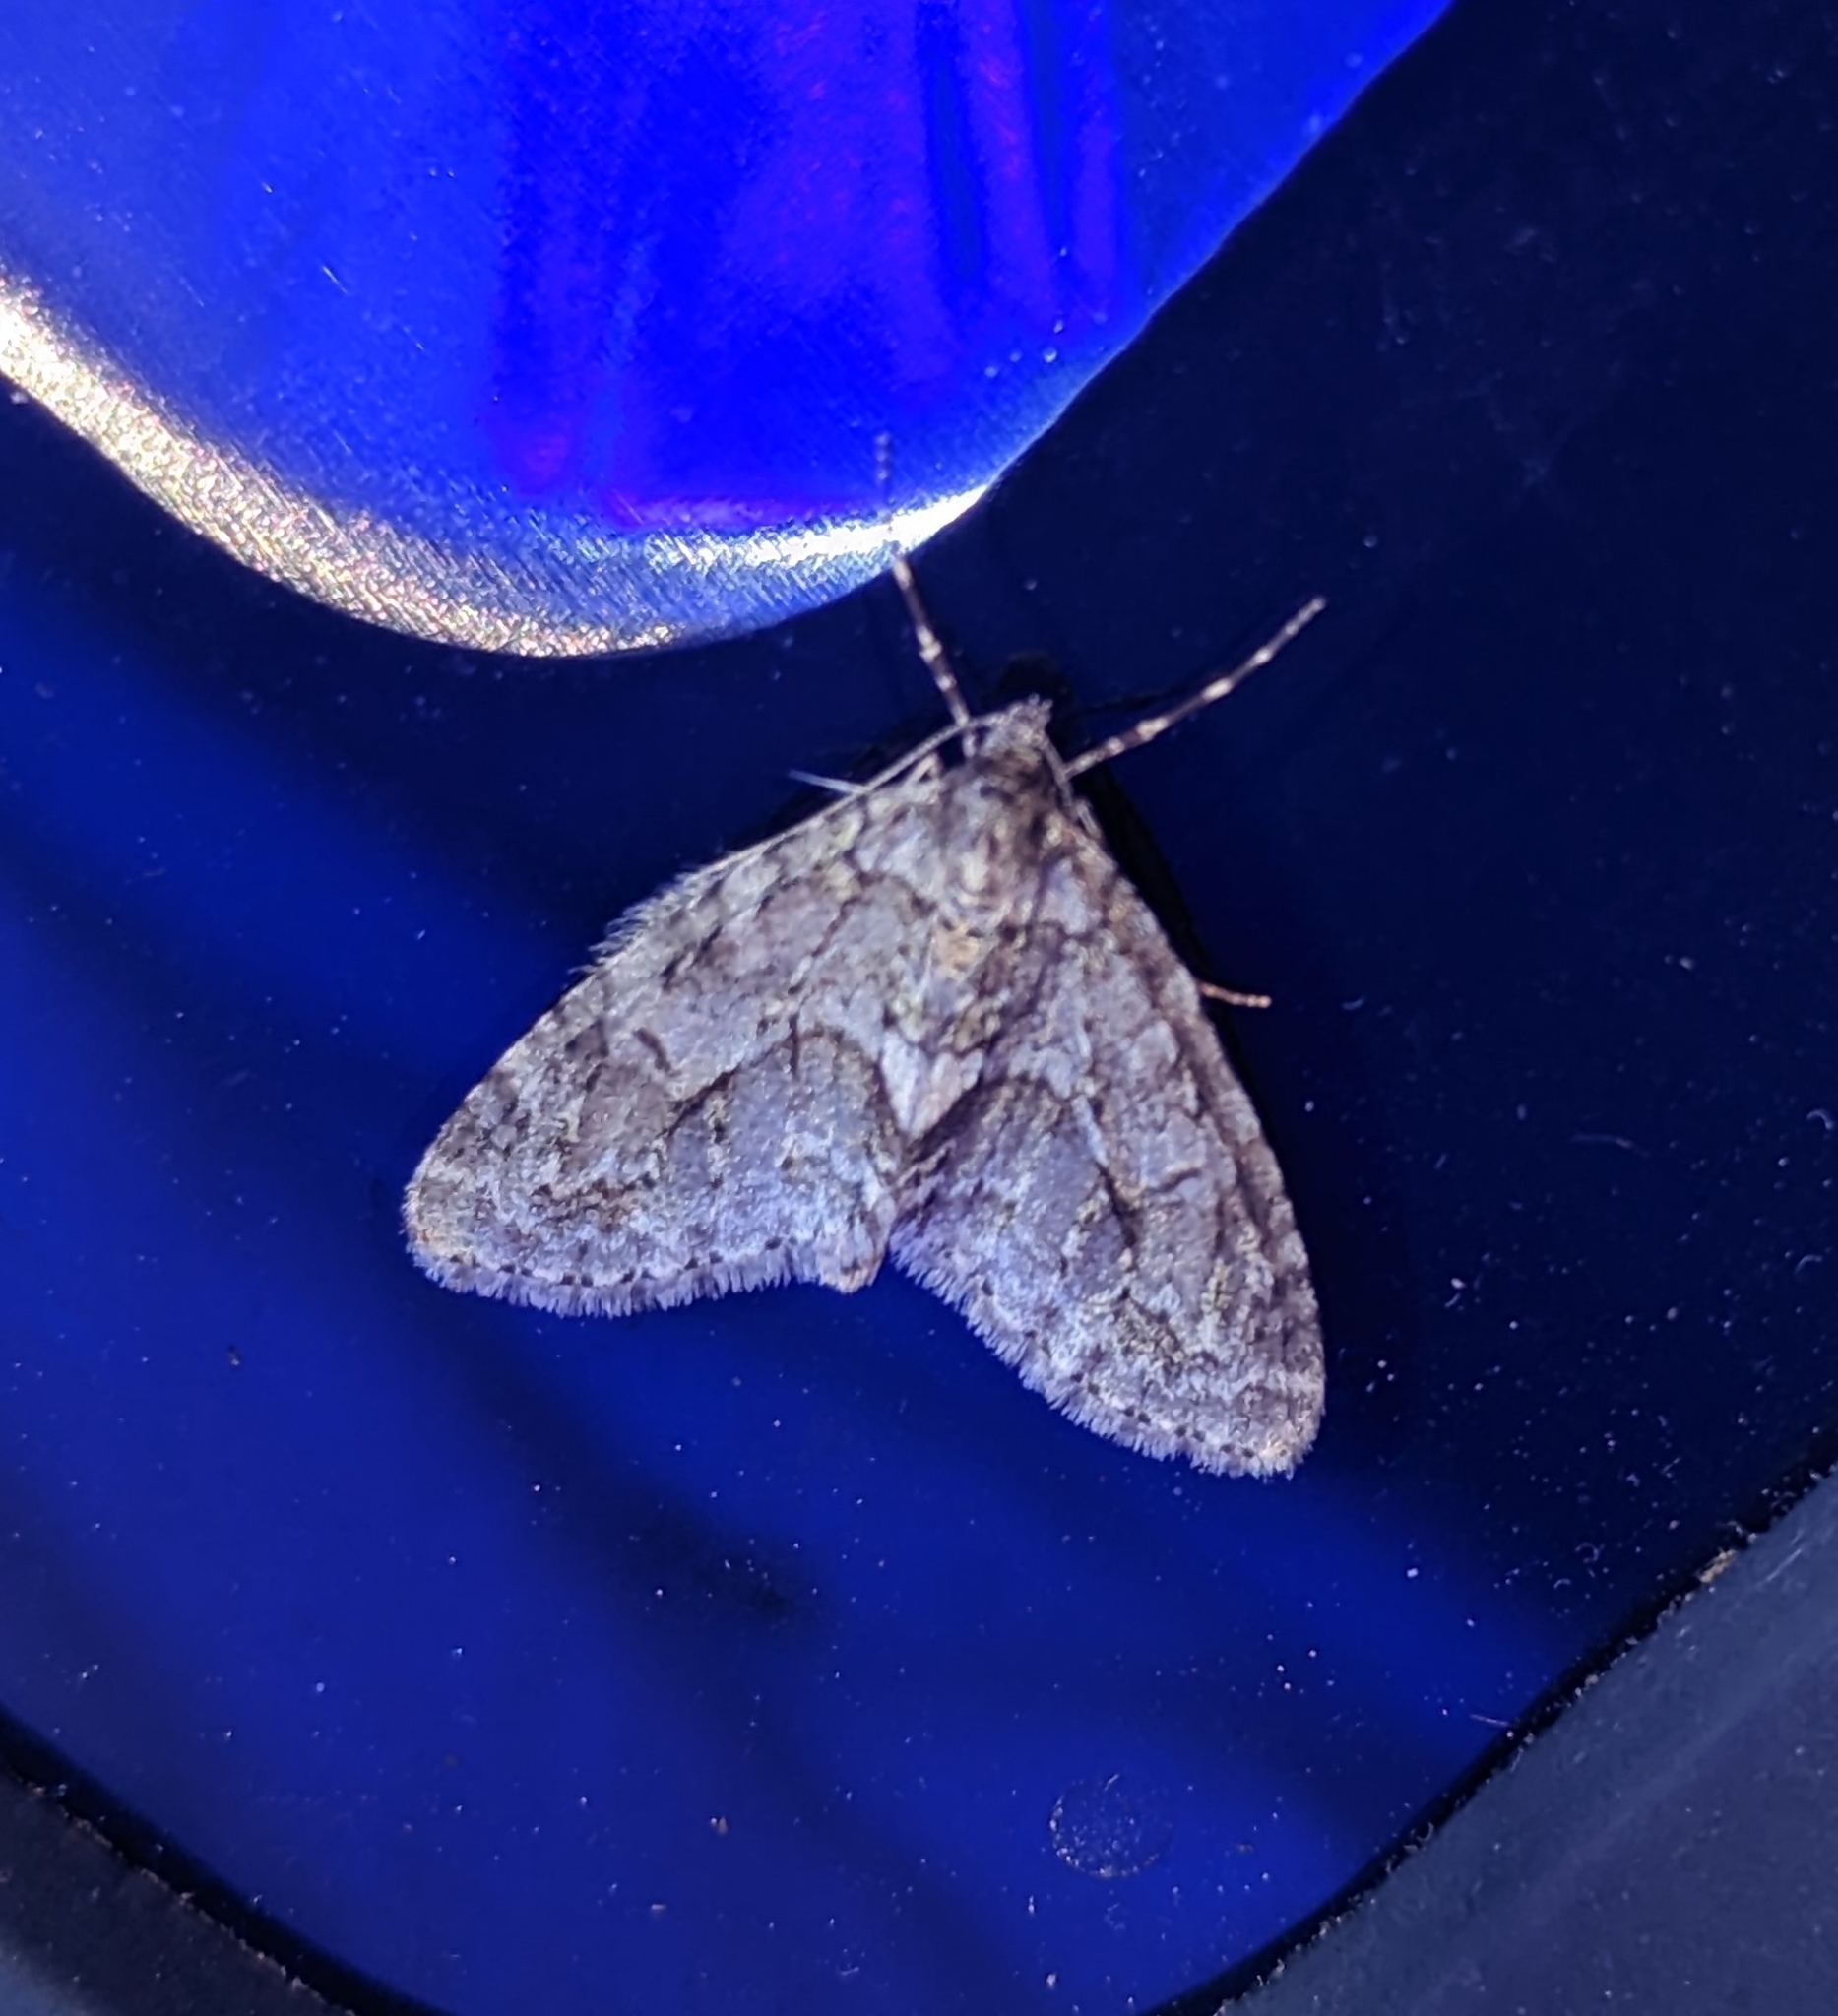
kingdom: Animalia
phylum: Arthropoda
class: Insecta
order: Lepidoptera
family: Geometridae
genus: Cladara
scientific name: Cladara limitaria
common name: Mottled gray carpet
